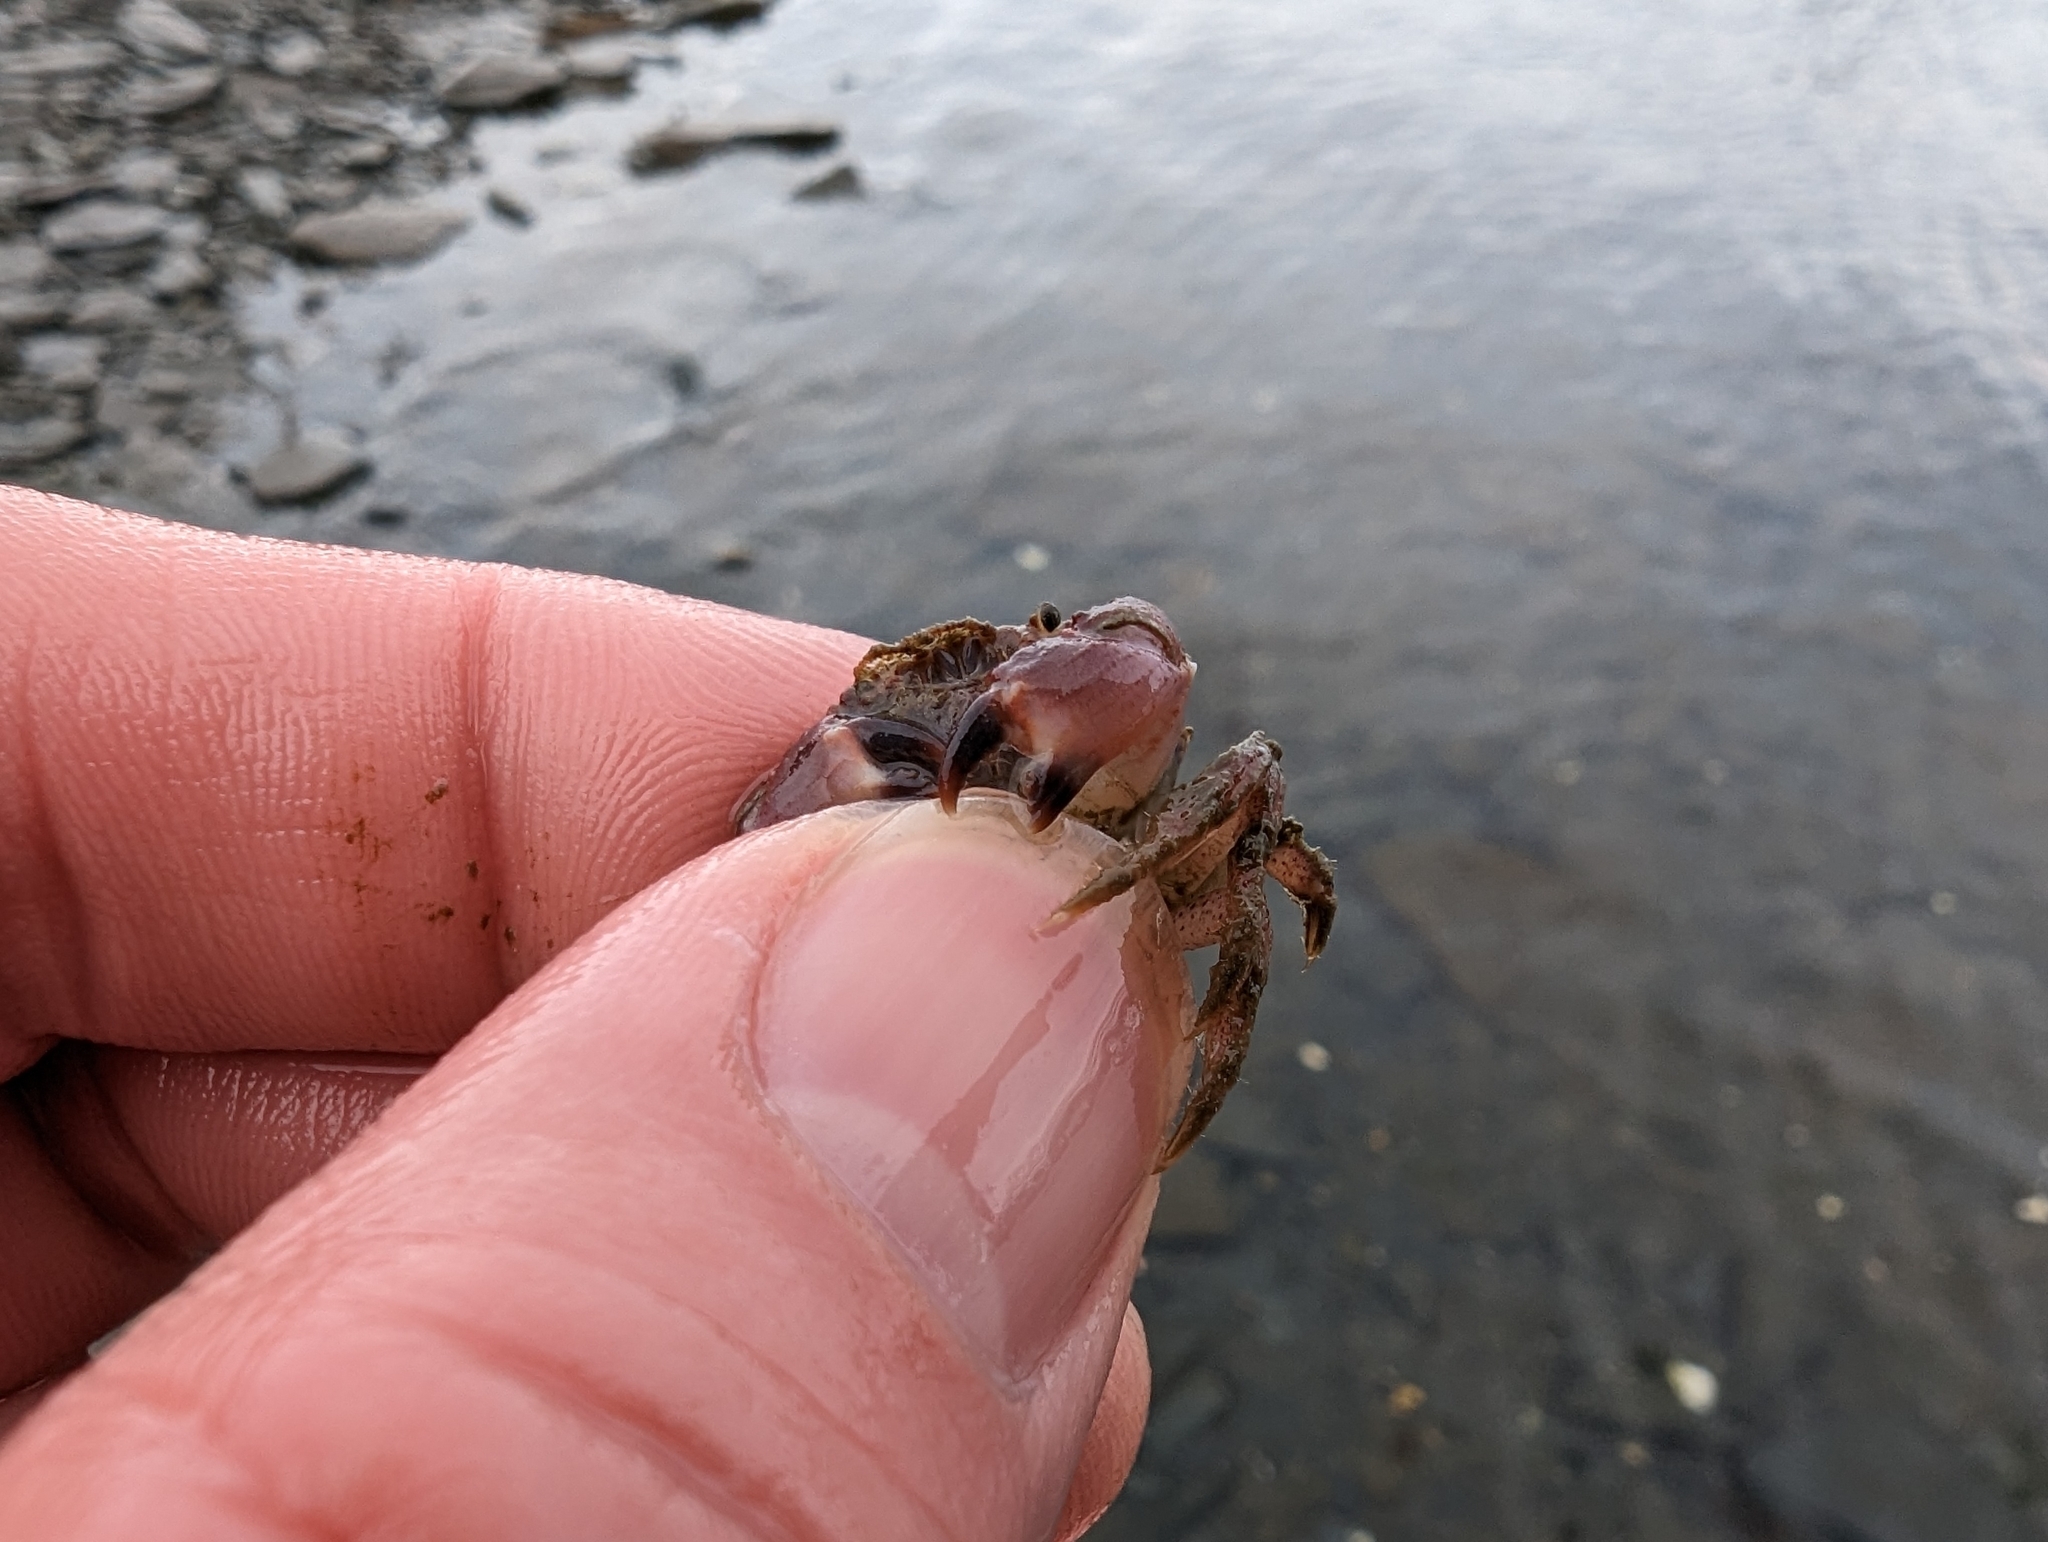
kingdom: Animalia
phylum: Arthropoda
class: Malacostraca
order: Decapoda
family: Cancridae
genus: Glebocarcinus
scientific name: Glebocarcinus oregonensis
